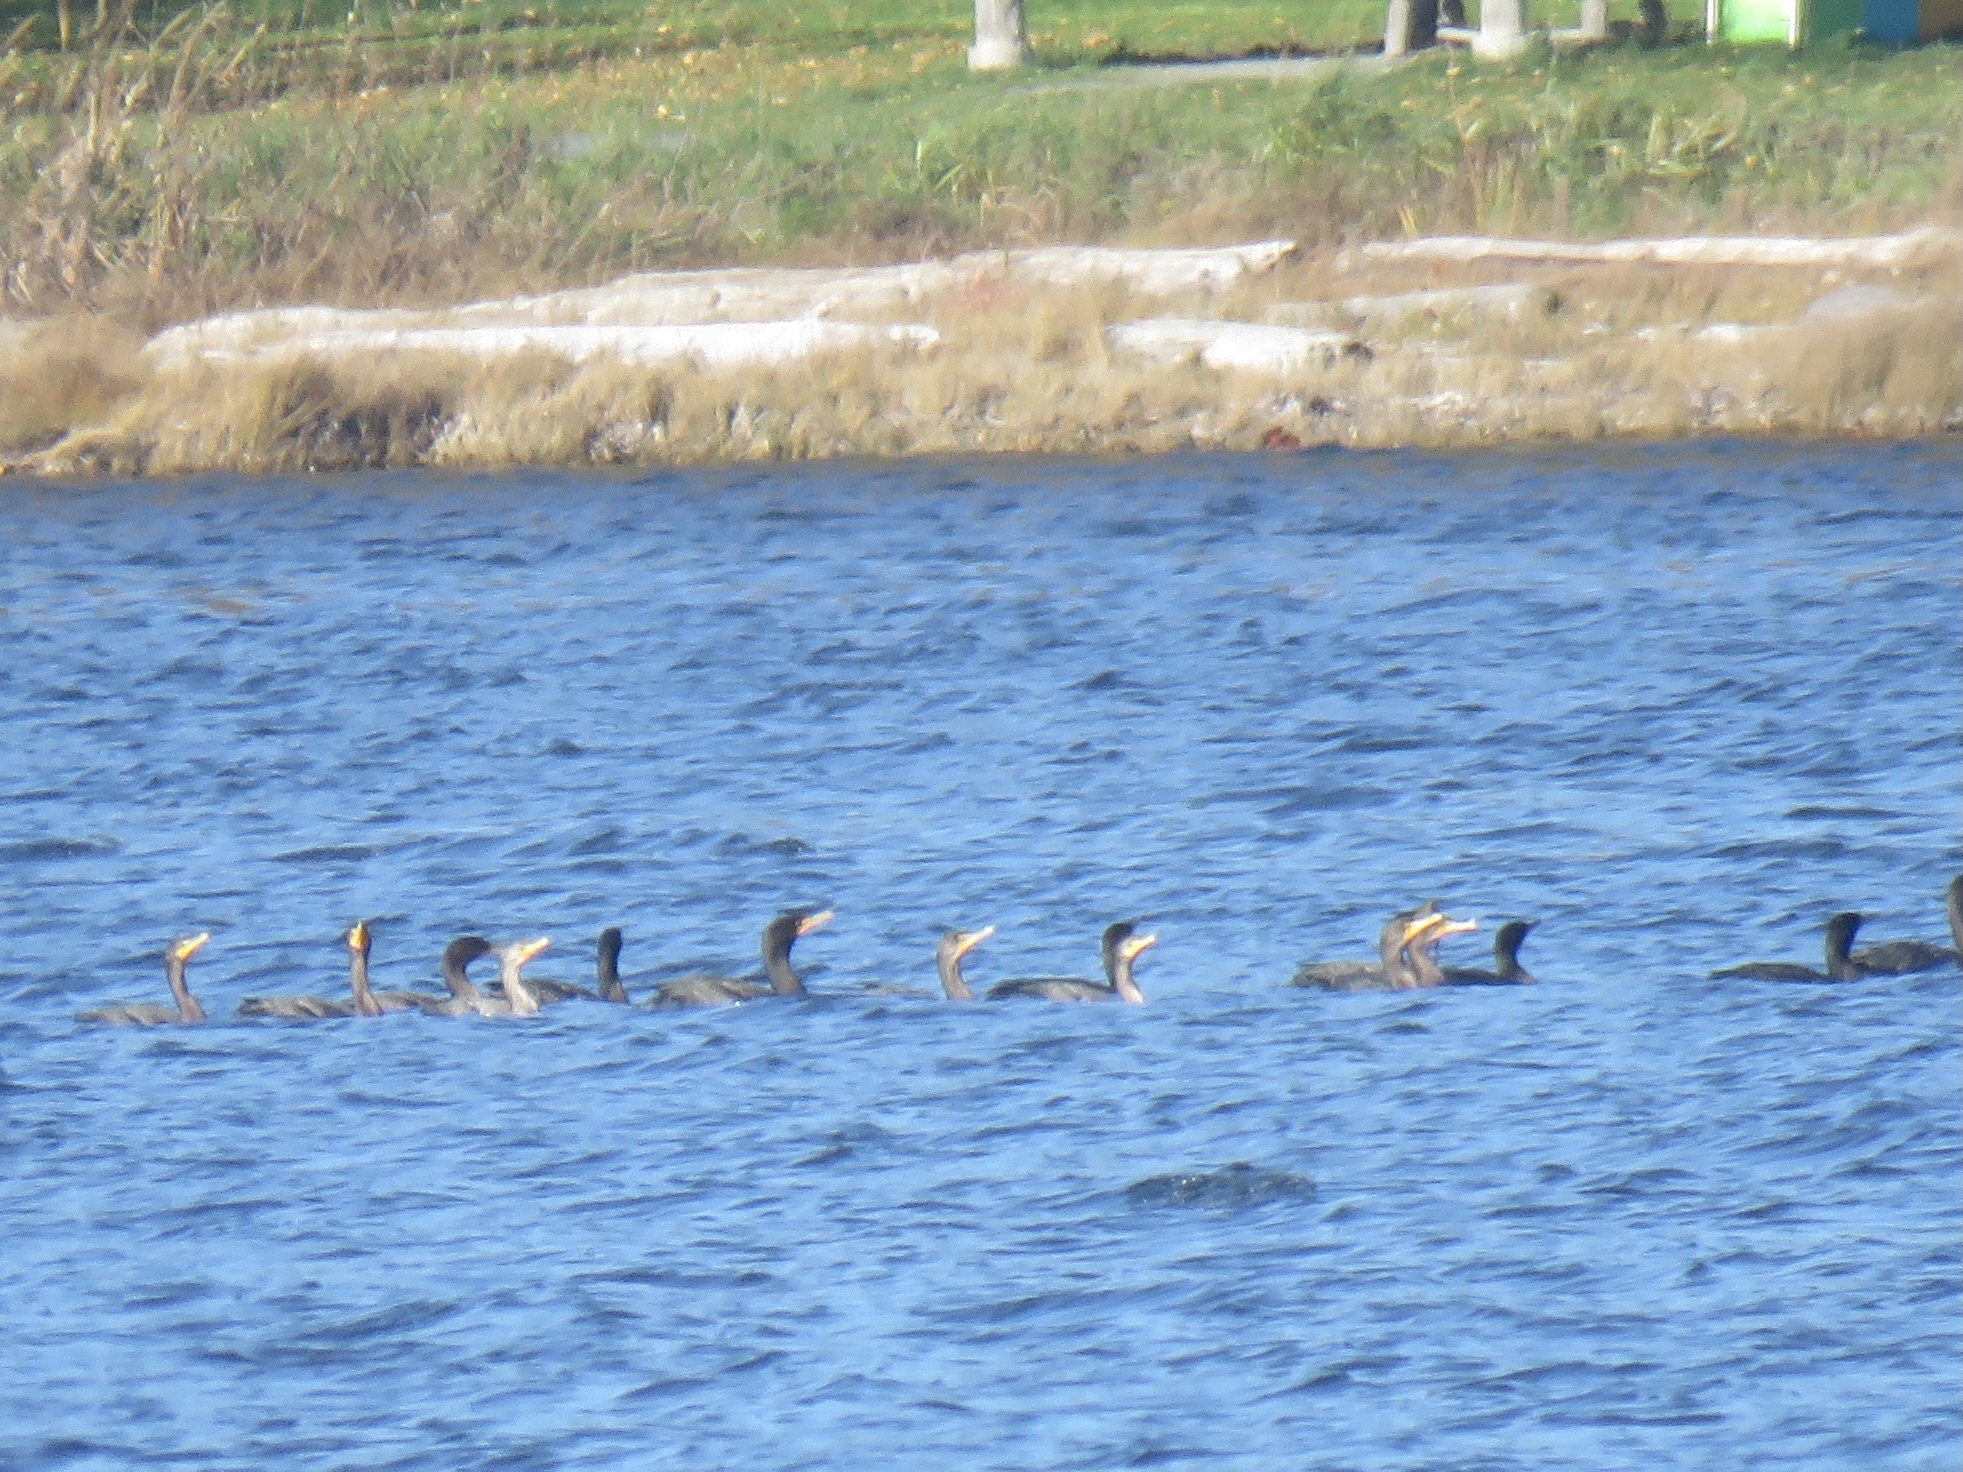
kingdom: Animalia
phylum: Chordata
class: Aves
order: Suliformes
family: Phalacrocoracidae
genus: Phalacrocorax
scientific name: Phalacrocorax auritus
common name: Double-crested cormorant
